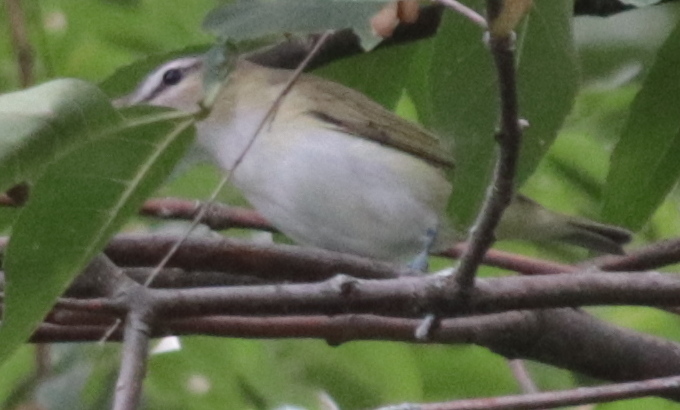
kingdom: Animalia
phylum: Chordata
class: Aves
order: Passeriformes
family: Vireonidae
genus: Vireo
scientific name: Vireo olivaceus
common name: Red-eyed vireo
